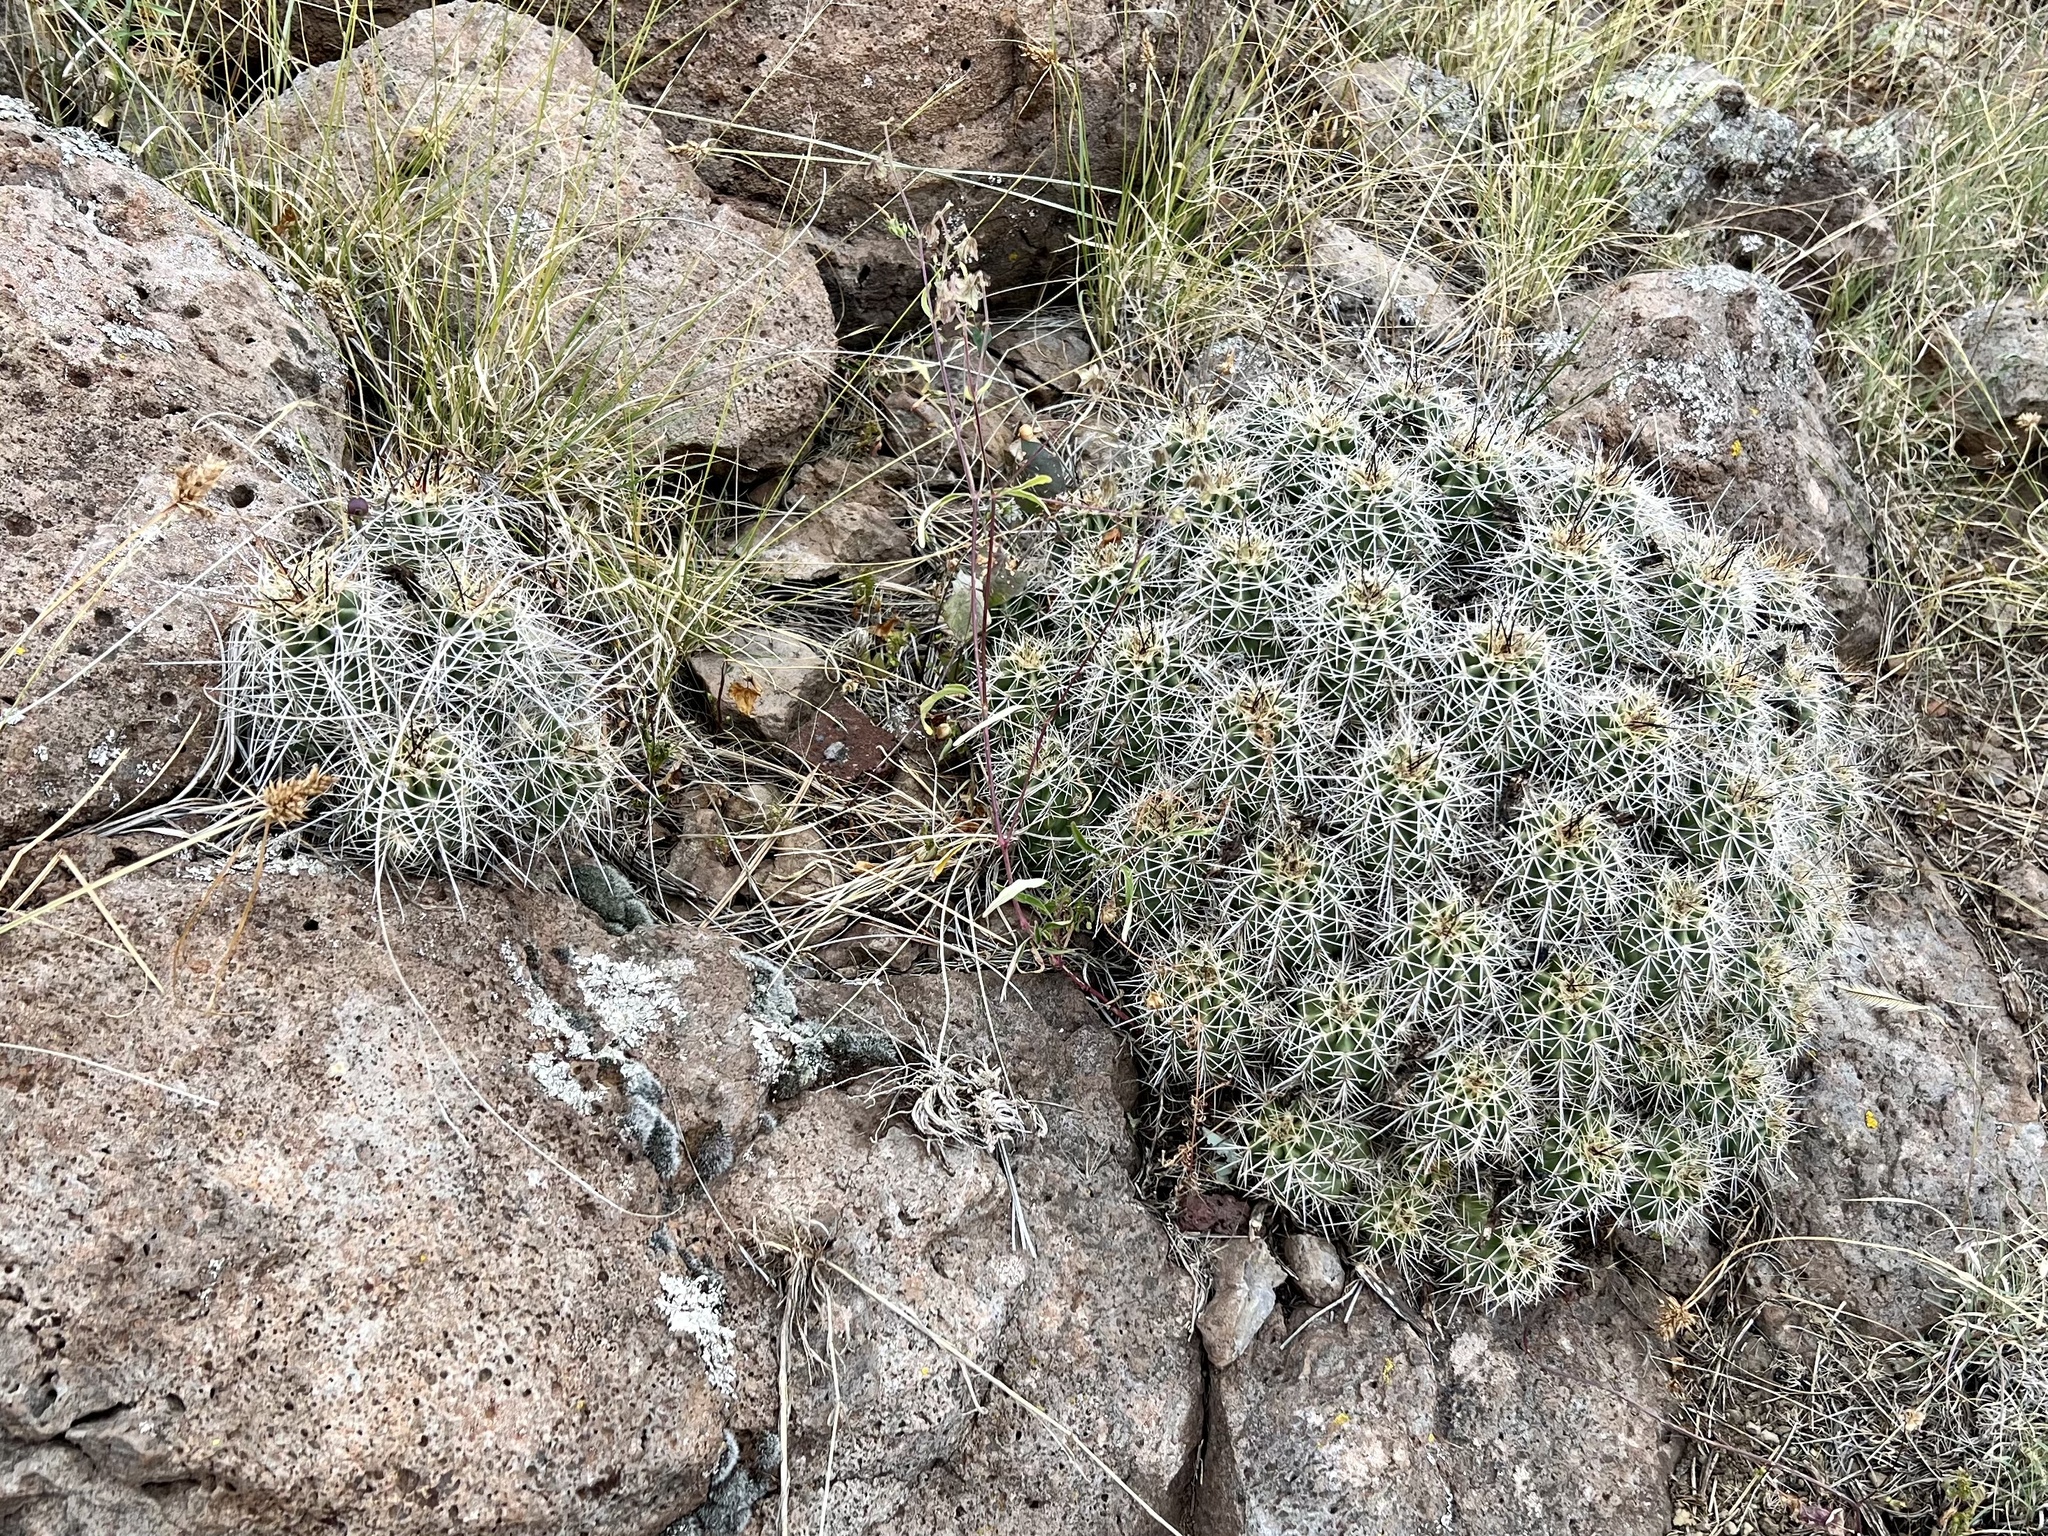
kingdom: Plantae
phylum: Tracheophyta
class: Magnoliopsida
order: Caryophyllales
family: Cactaceae
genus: Echinocereus
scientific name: Echinocereus bakeri
